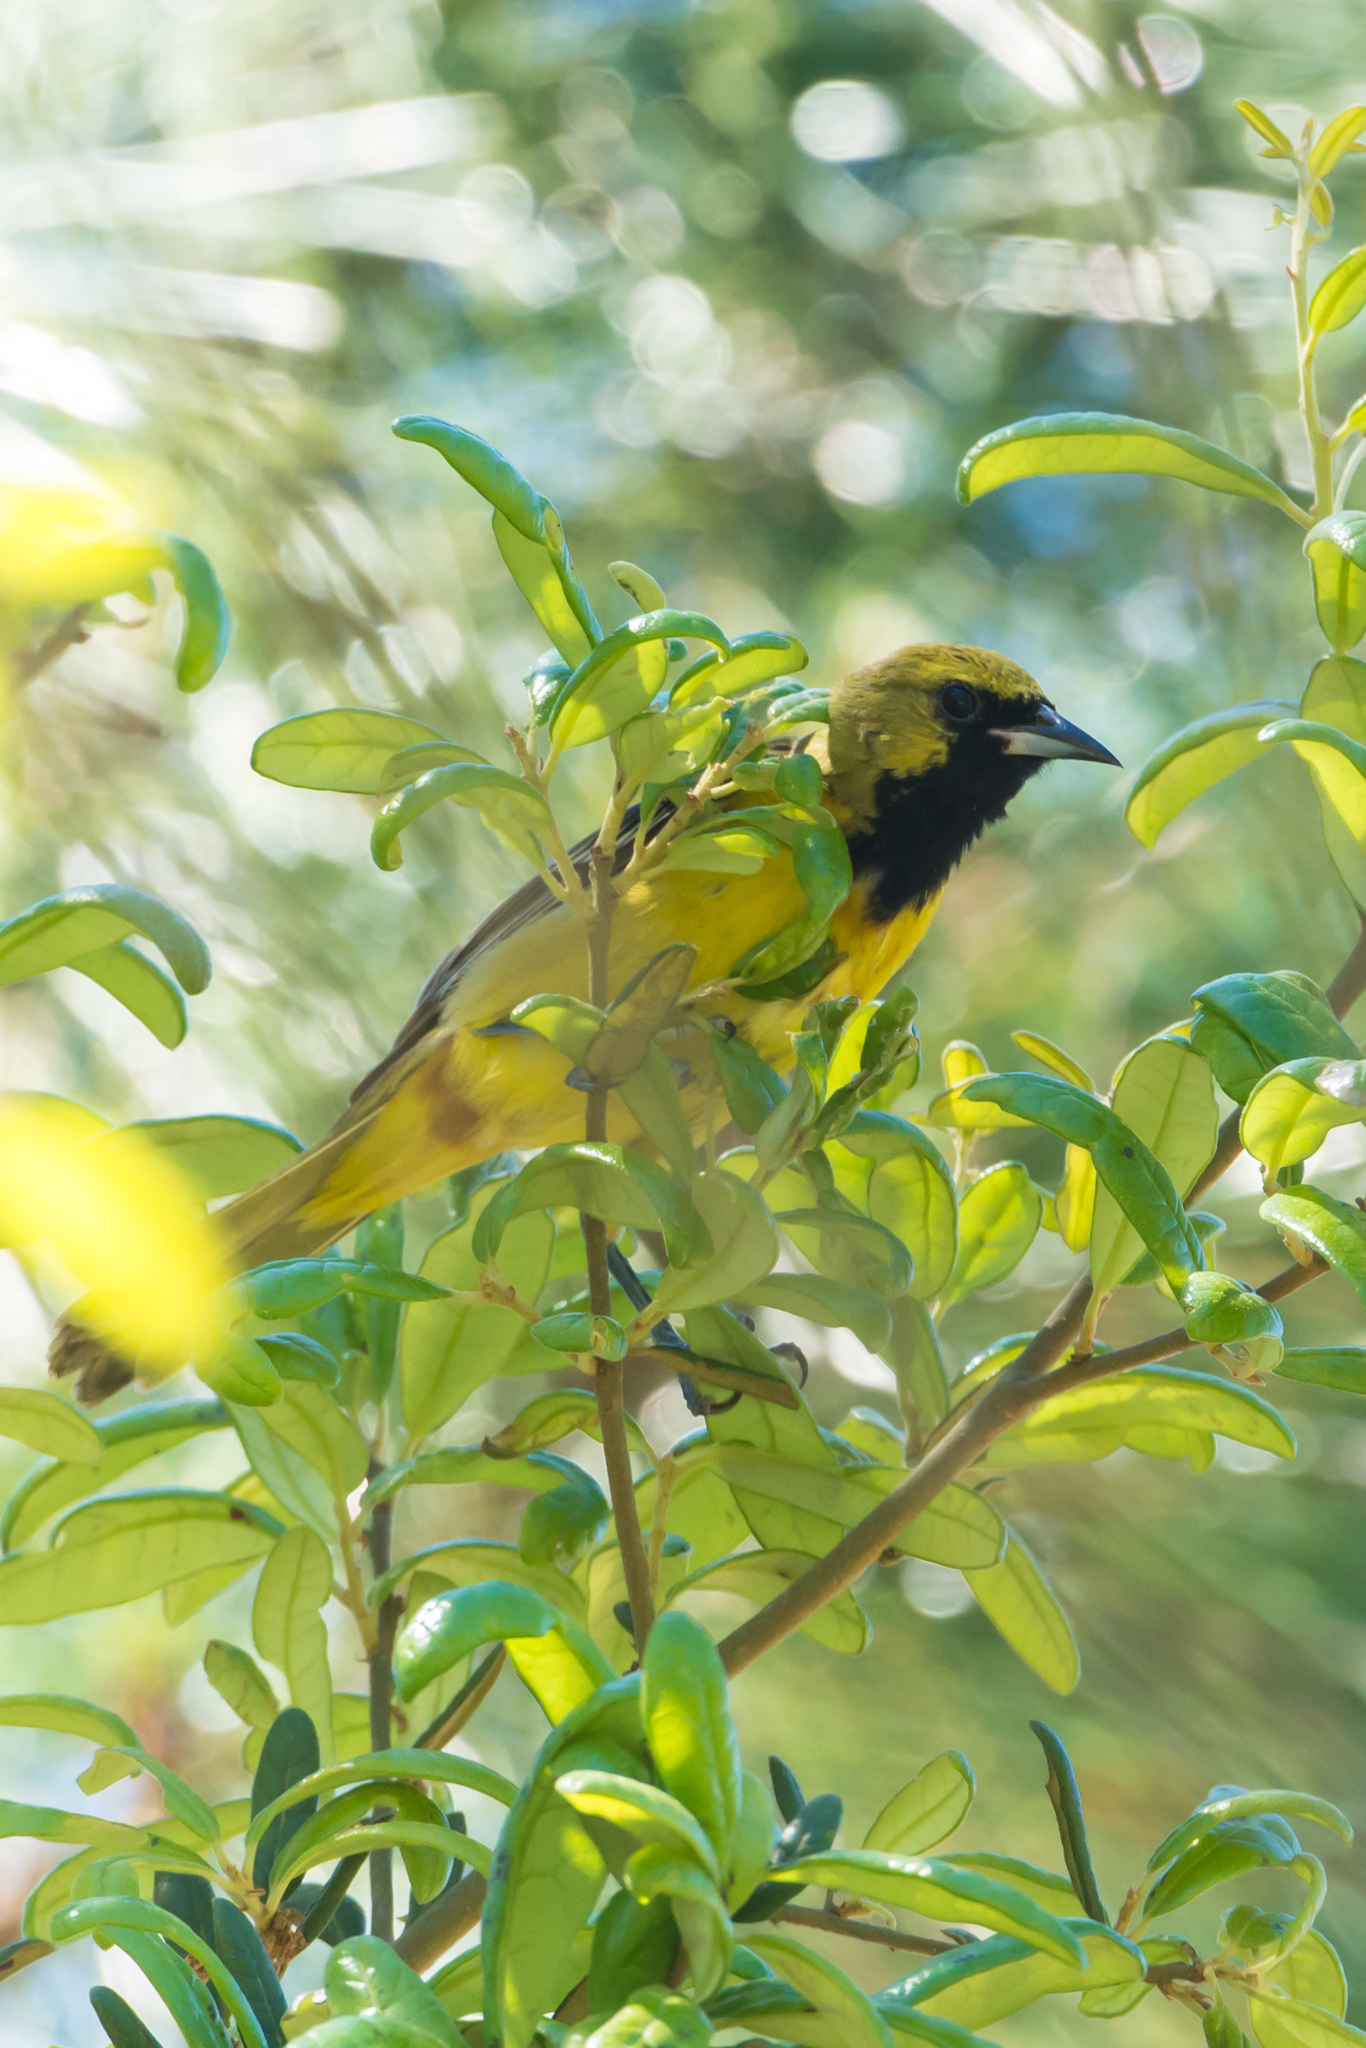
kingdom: Animalia
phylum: Chordata
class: Aves
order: Passeriformes
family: Icteridae
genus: Icterus
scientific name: Icterus spurius
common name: Orchard oriole
